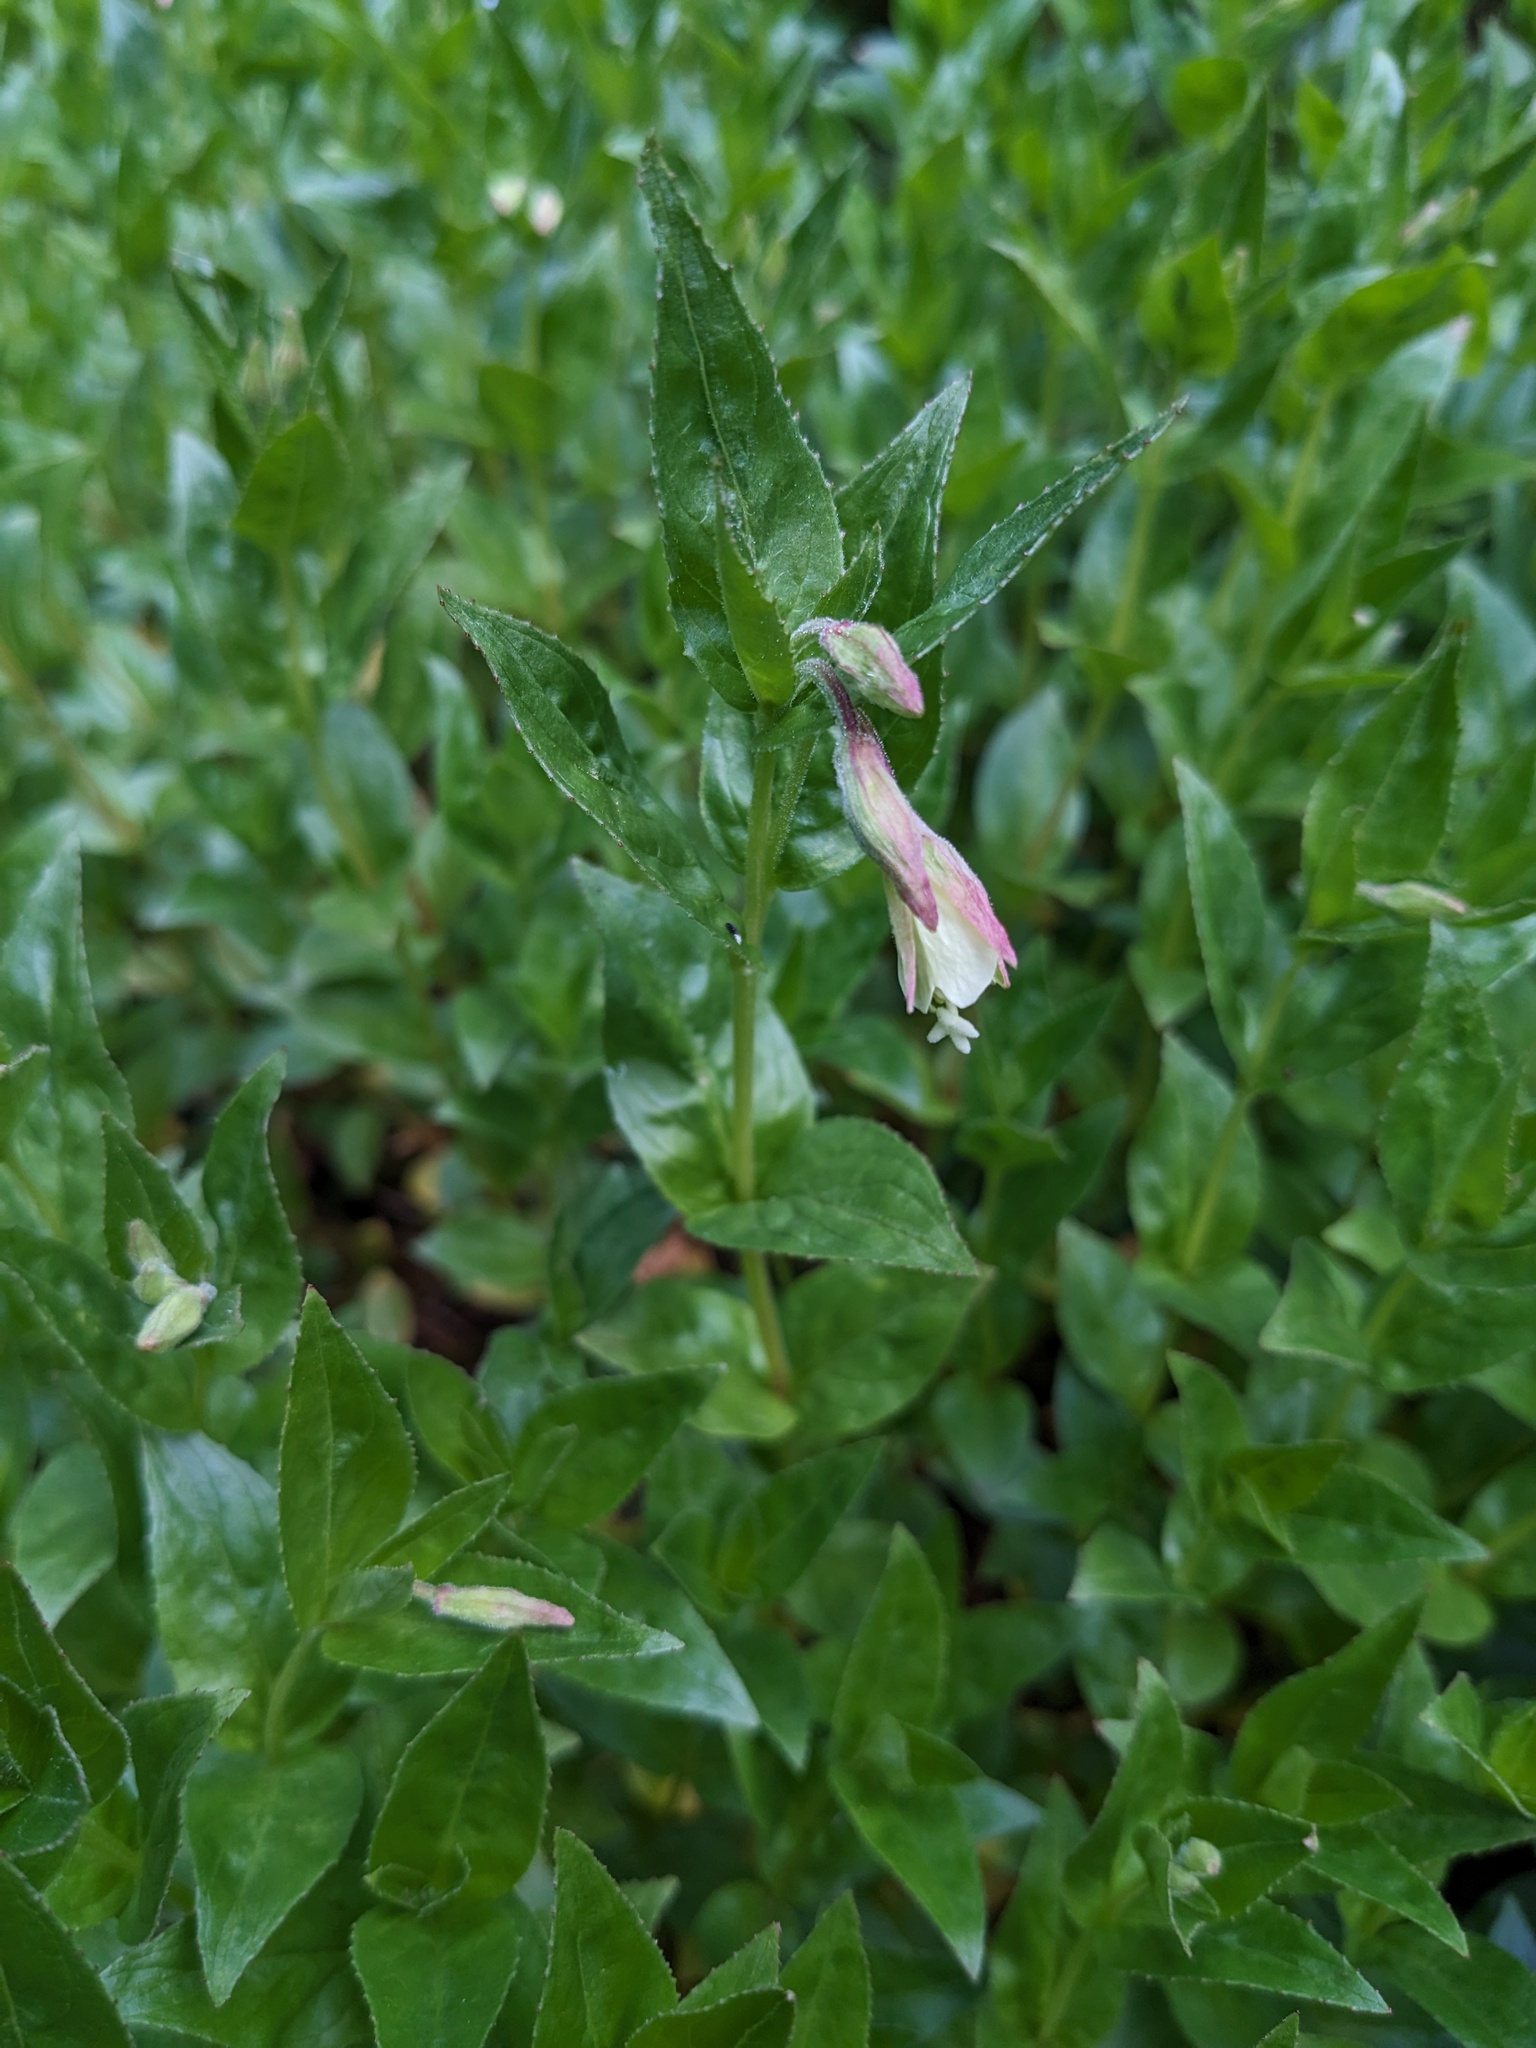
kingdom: Plantae
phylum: Tracheophyta
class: Magnoliopsida
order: Myrtales
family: Onagraceae
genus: Epilobium
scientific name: Epilobium luteum
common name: Yellow willowherb
